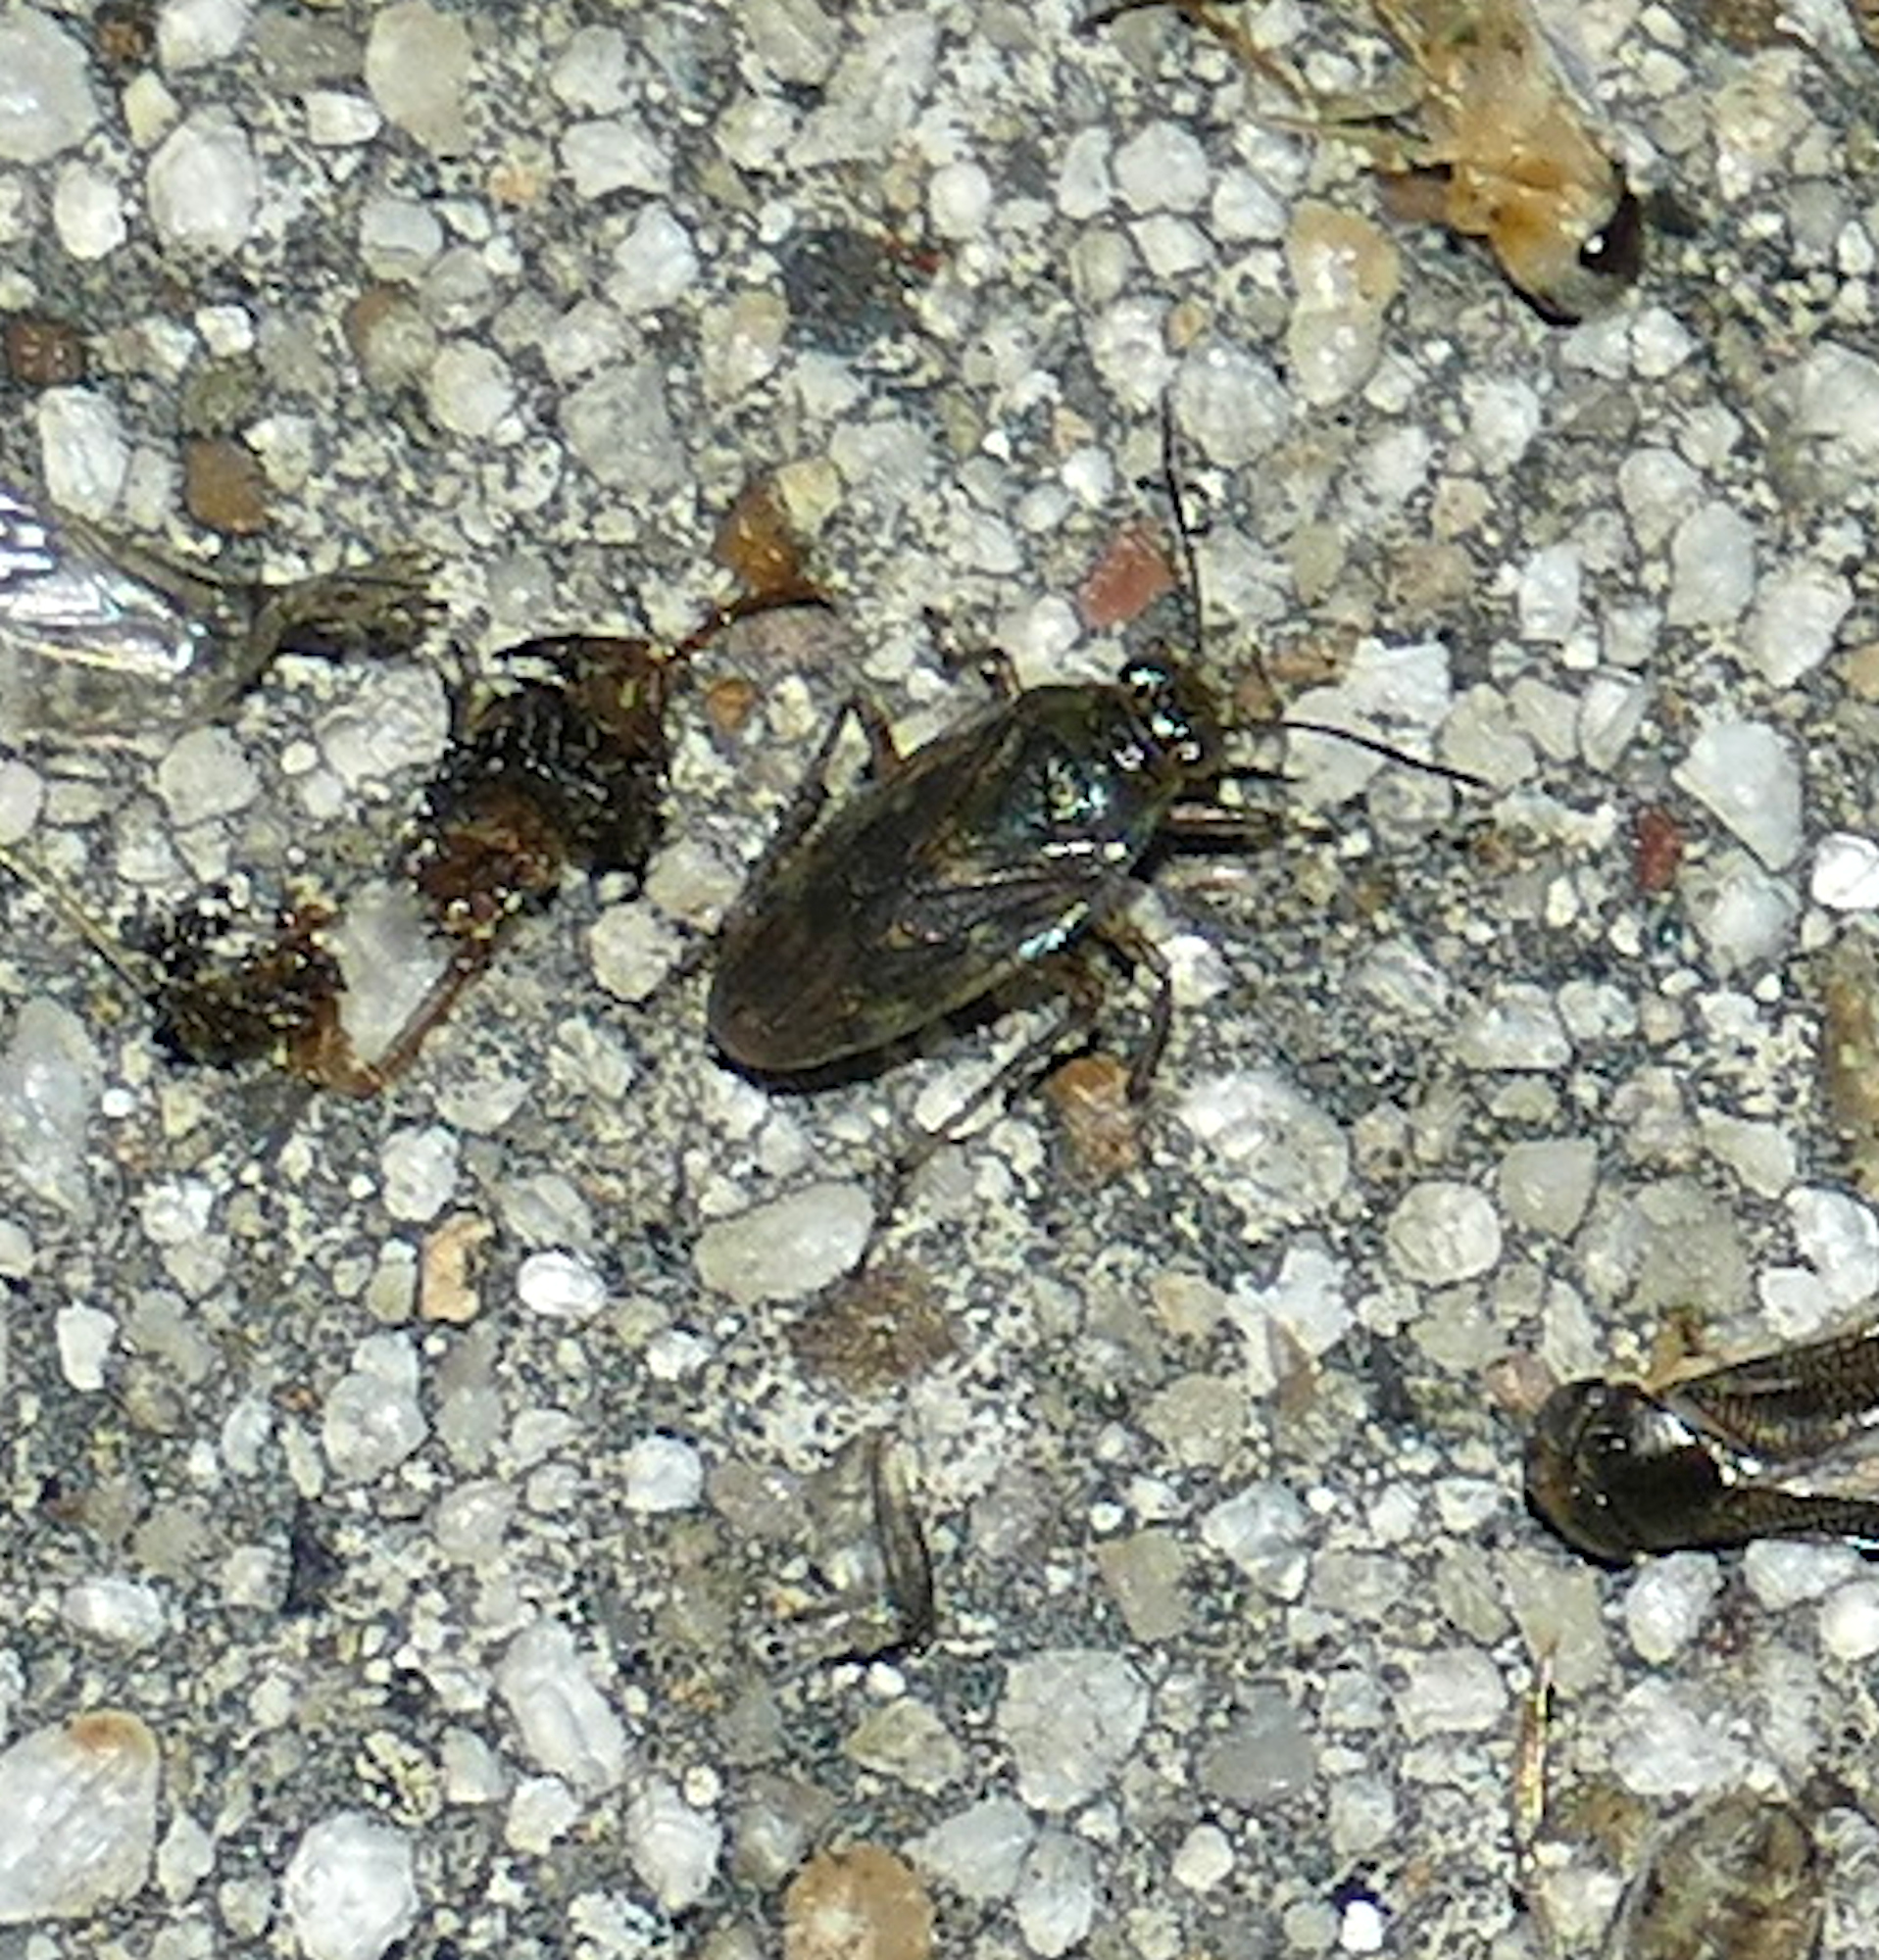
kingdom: Animalia
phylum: Arthropoda
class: Insecta
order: Hemiptera
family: Saldidae
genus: Pentacora
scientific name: Pentacora sphacelata
